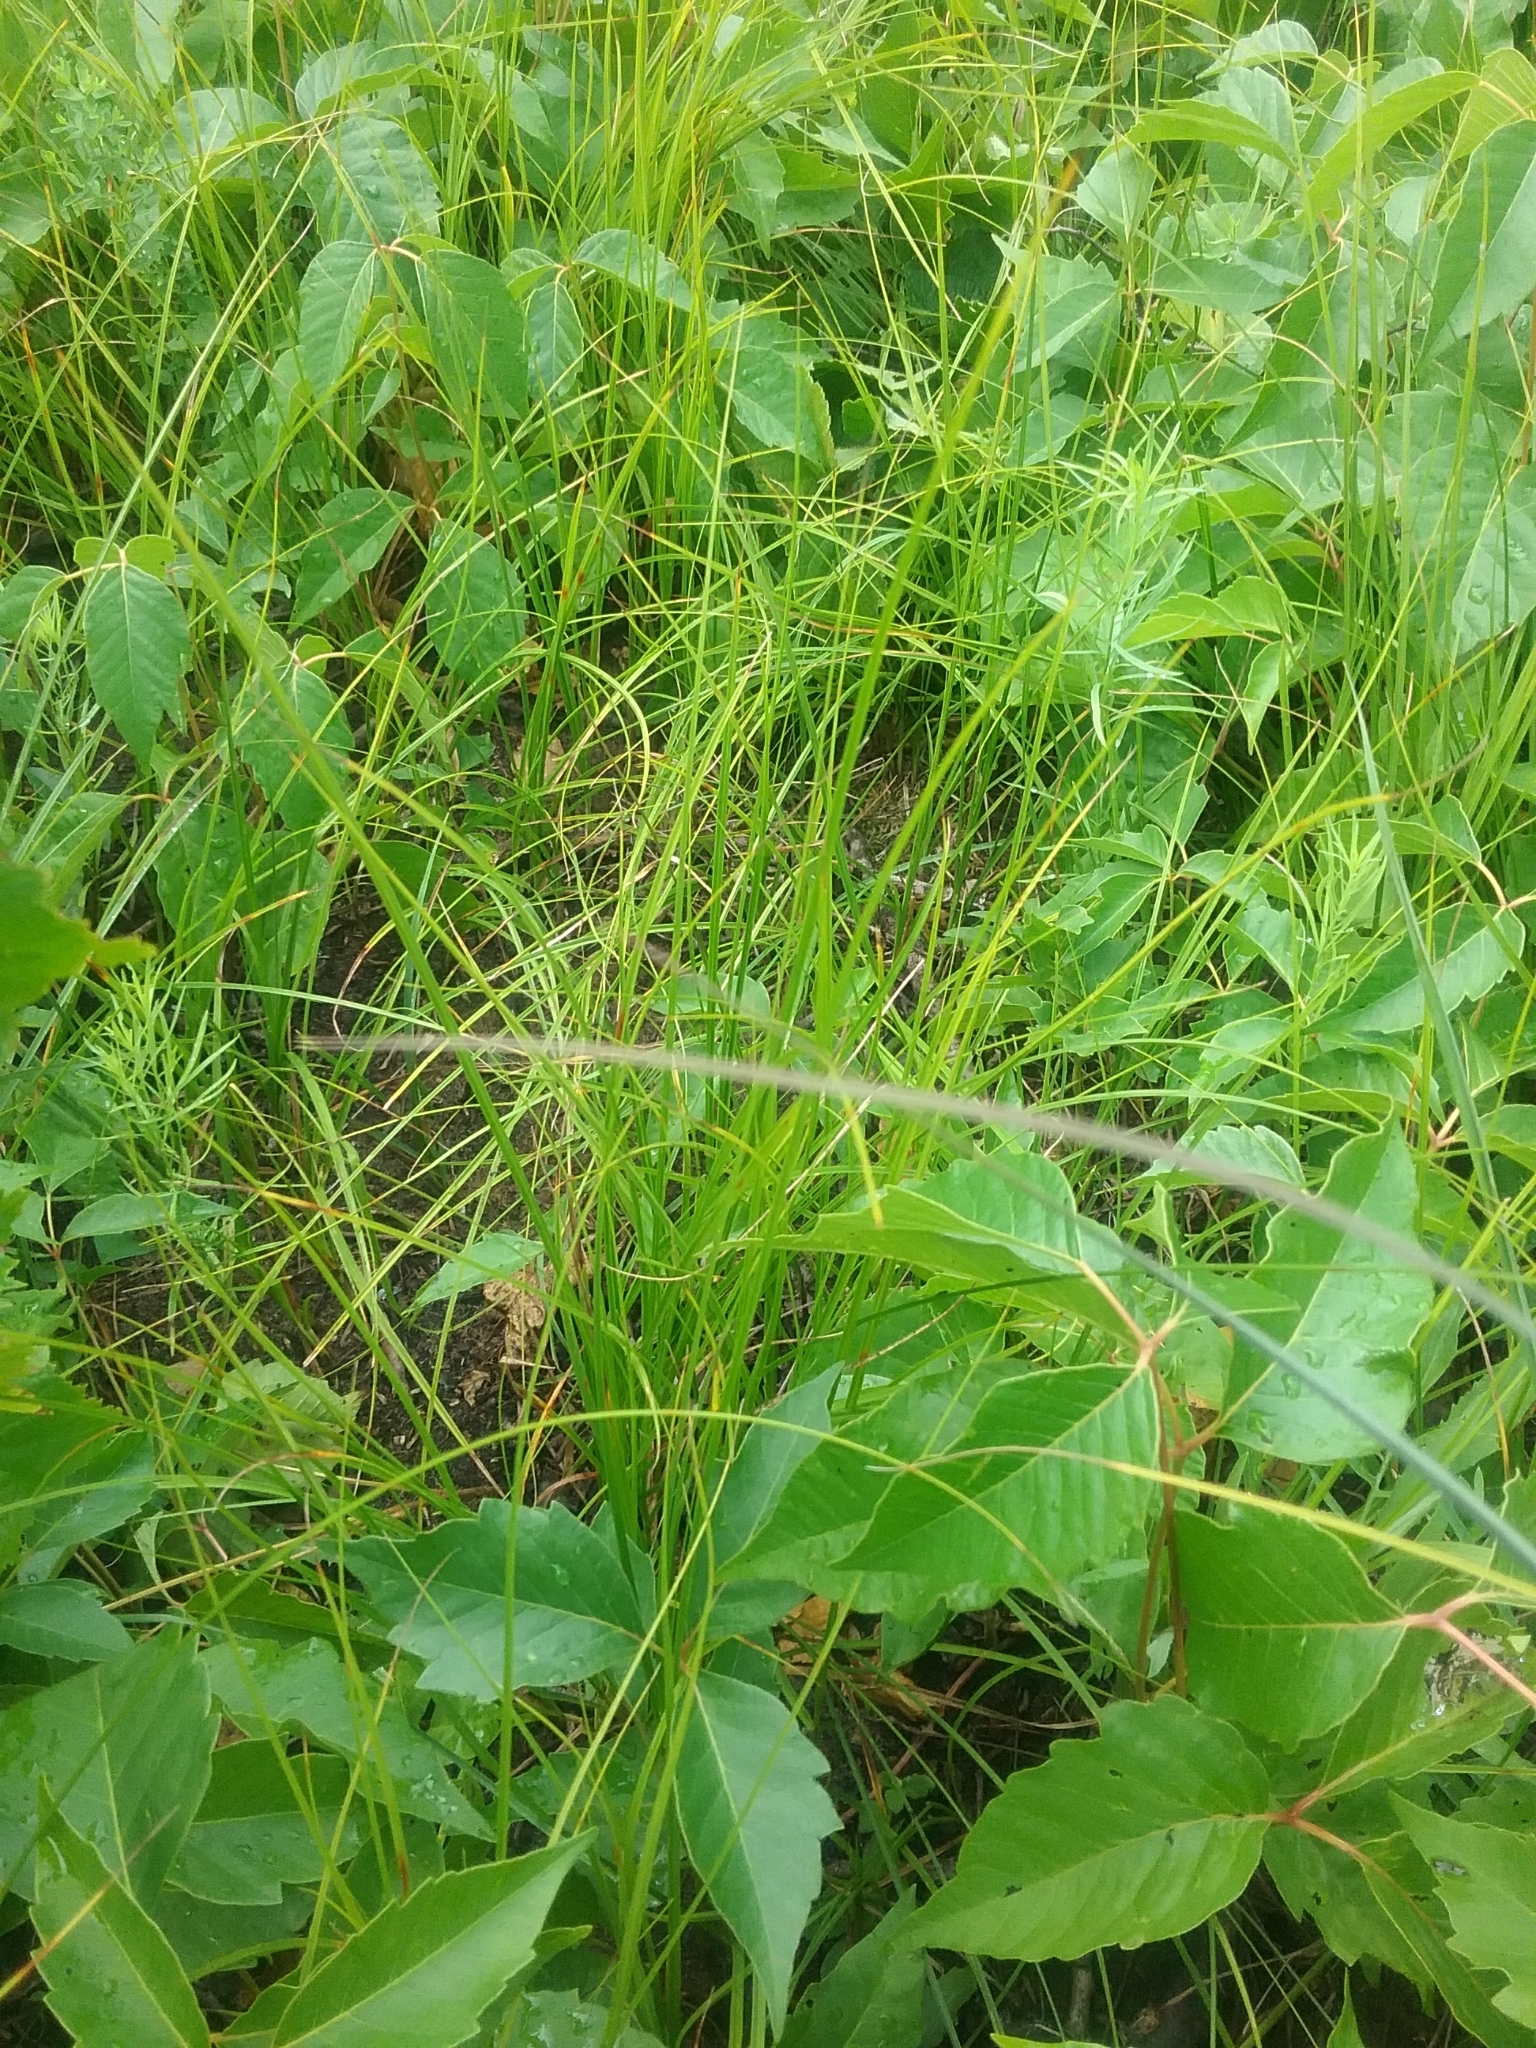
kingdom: Plantae
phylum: Tracheophyta
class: Magnoliopsida
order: Sapindales
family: Anacardiaceae
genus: Toxicodendron
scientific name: Toxicodendron radicans
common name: Poison ivy
